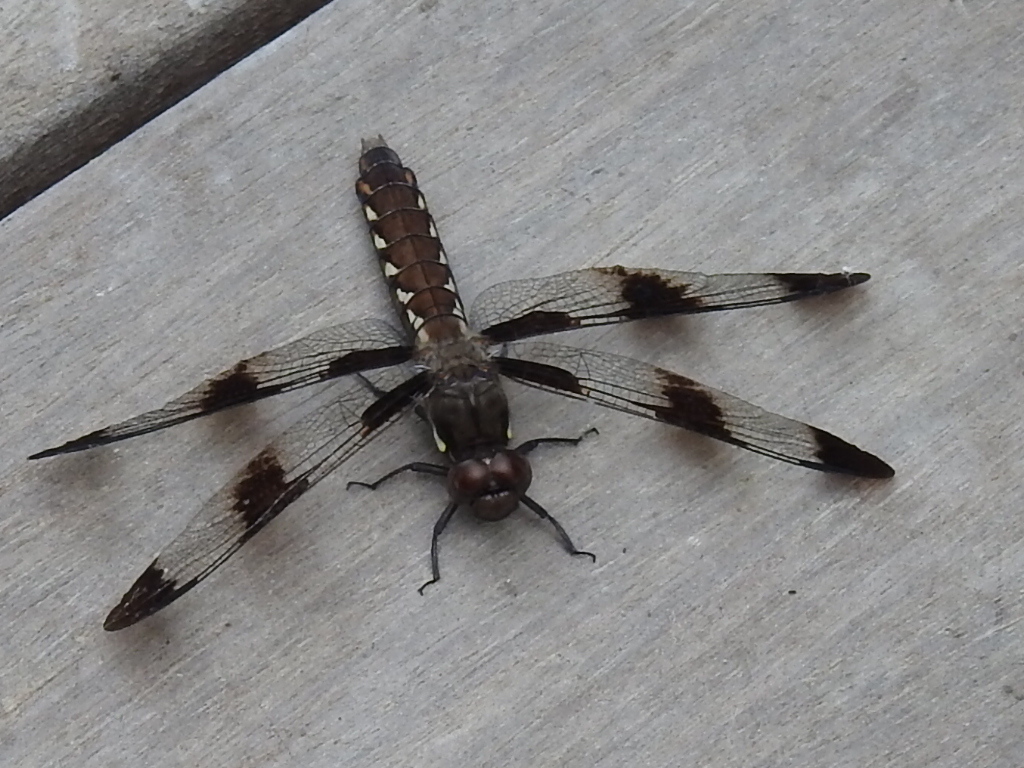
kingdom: Animalia
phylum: Arthropoda
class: Insecta
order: Odonata
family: Libellulidae
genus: Plathemis
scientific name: Plathemis lydia
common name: Common whitetail
